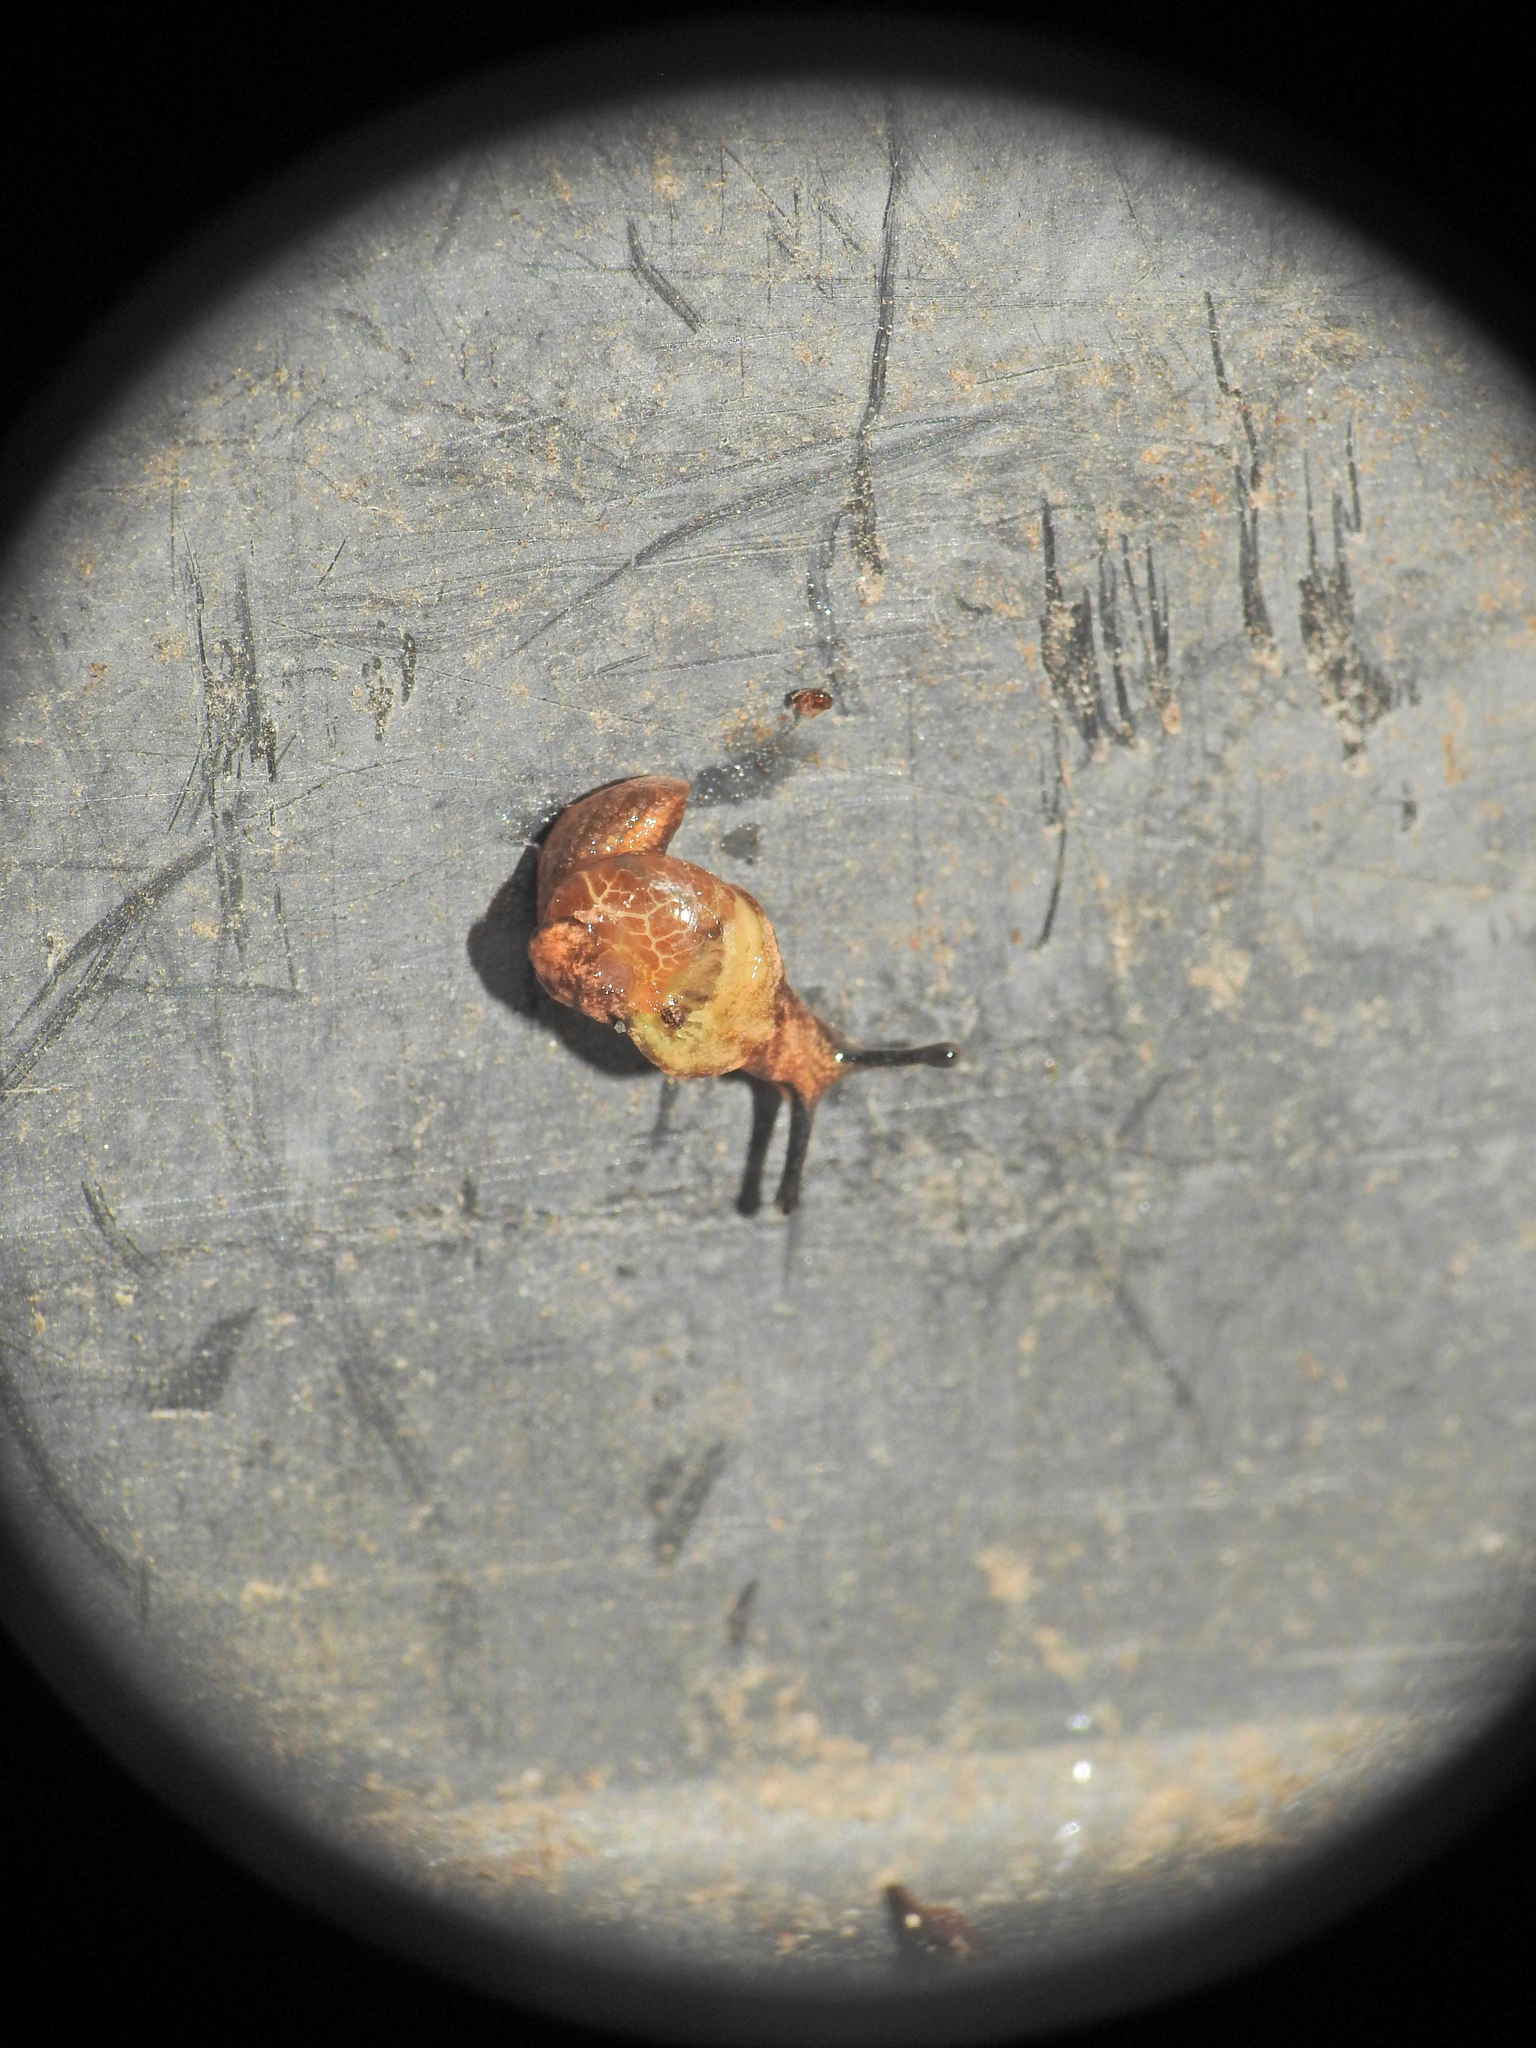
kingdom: Animalia
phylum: Mollusca
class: Gastropoda
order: Stylommatophora
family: Helicarionidae
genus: Ubiquitarion
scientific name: Ubiquitarion iridis
